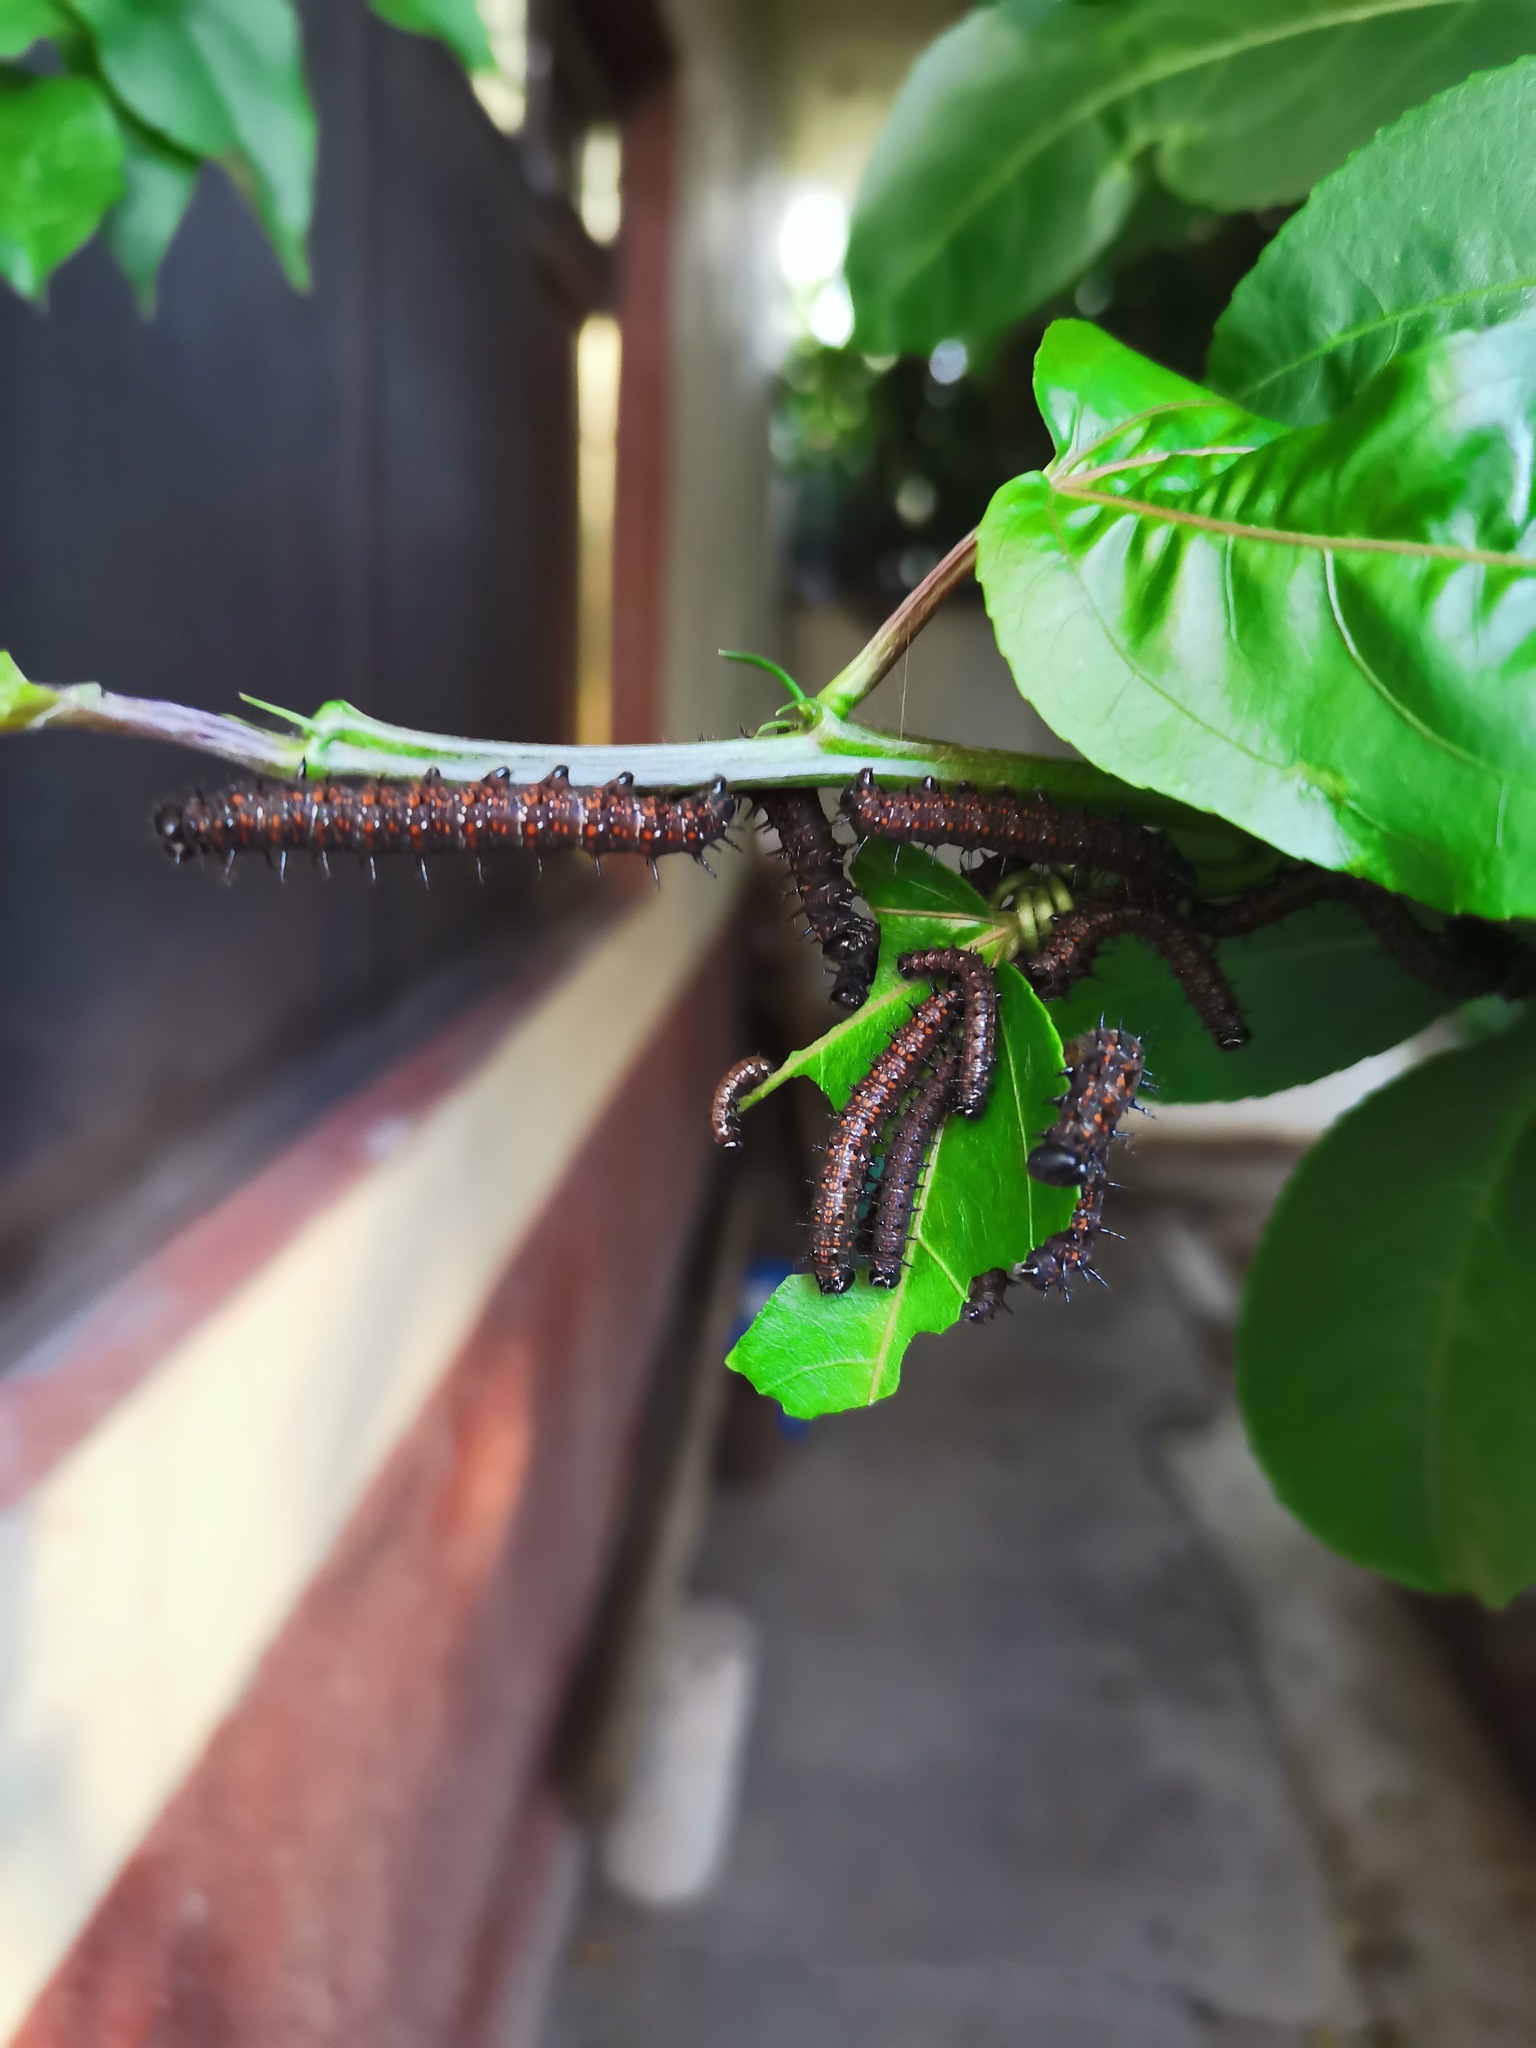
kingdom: Animalia
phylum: Arthropoda
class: Insecta
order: Lepidoptera
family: Nymphalidae
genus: Dione
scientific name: Dione juno
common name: Juno silverspot
